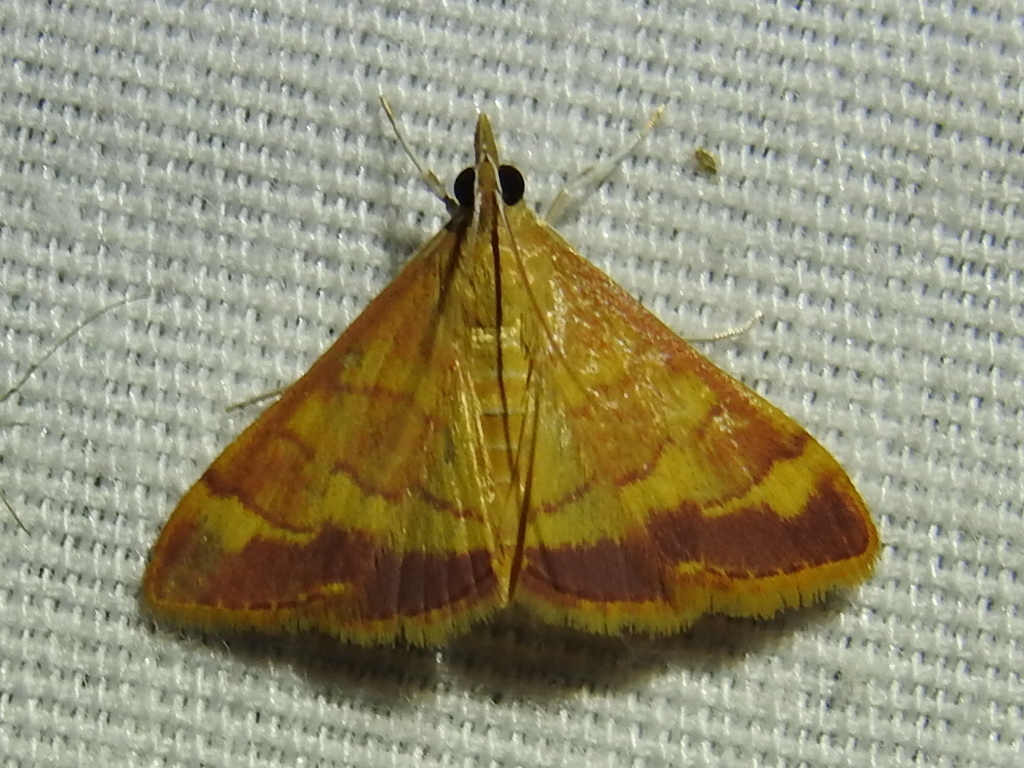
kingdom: Animalia
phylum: Arthropoda
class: Insecta
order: Lepidoptera
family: Crambidae
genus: Pyrausta
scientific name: Pyrausta pseudonythesalis
